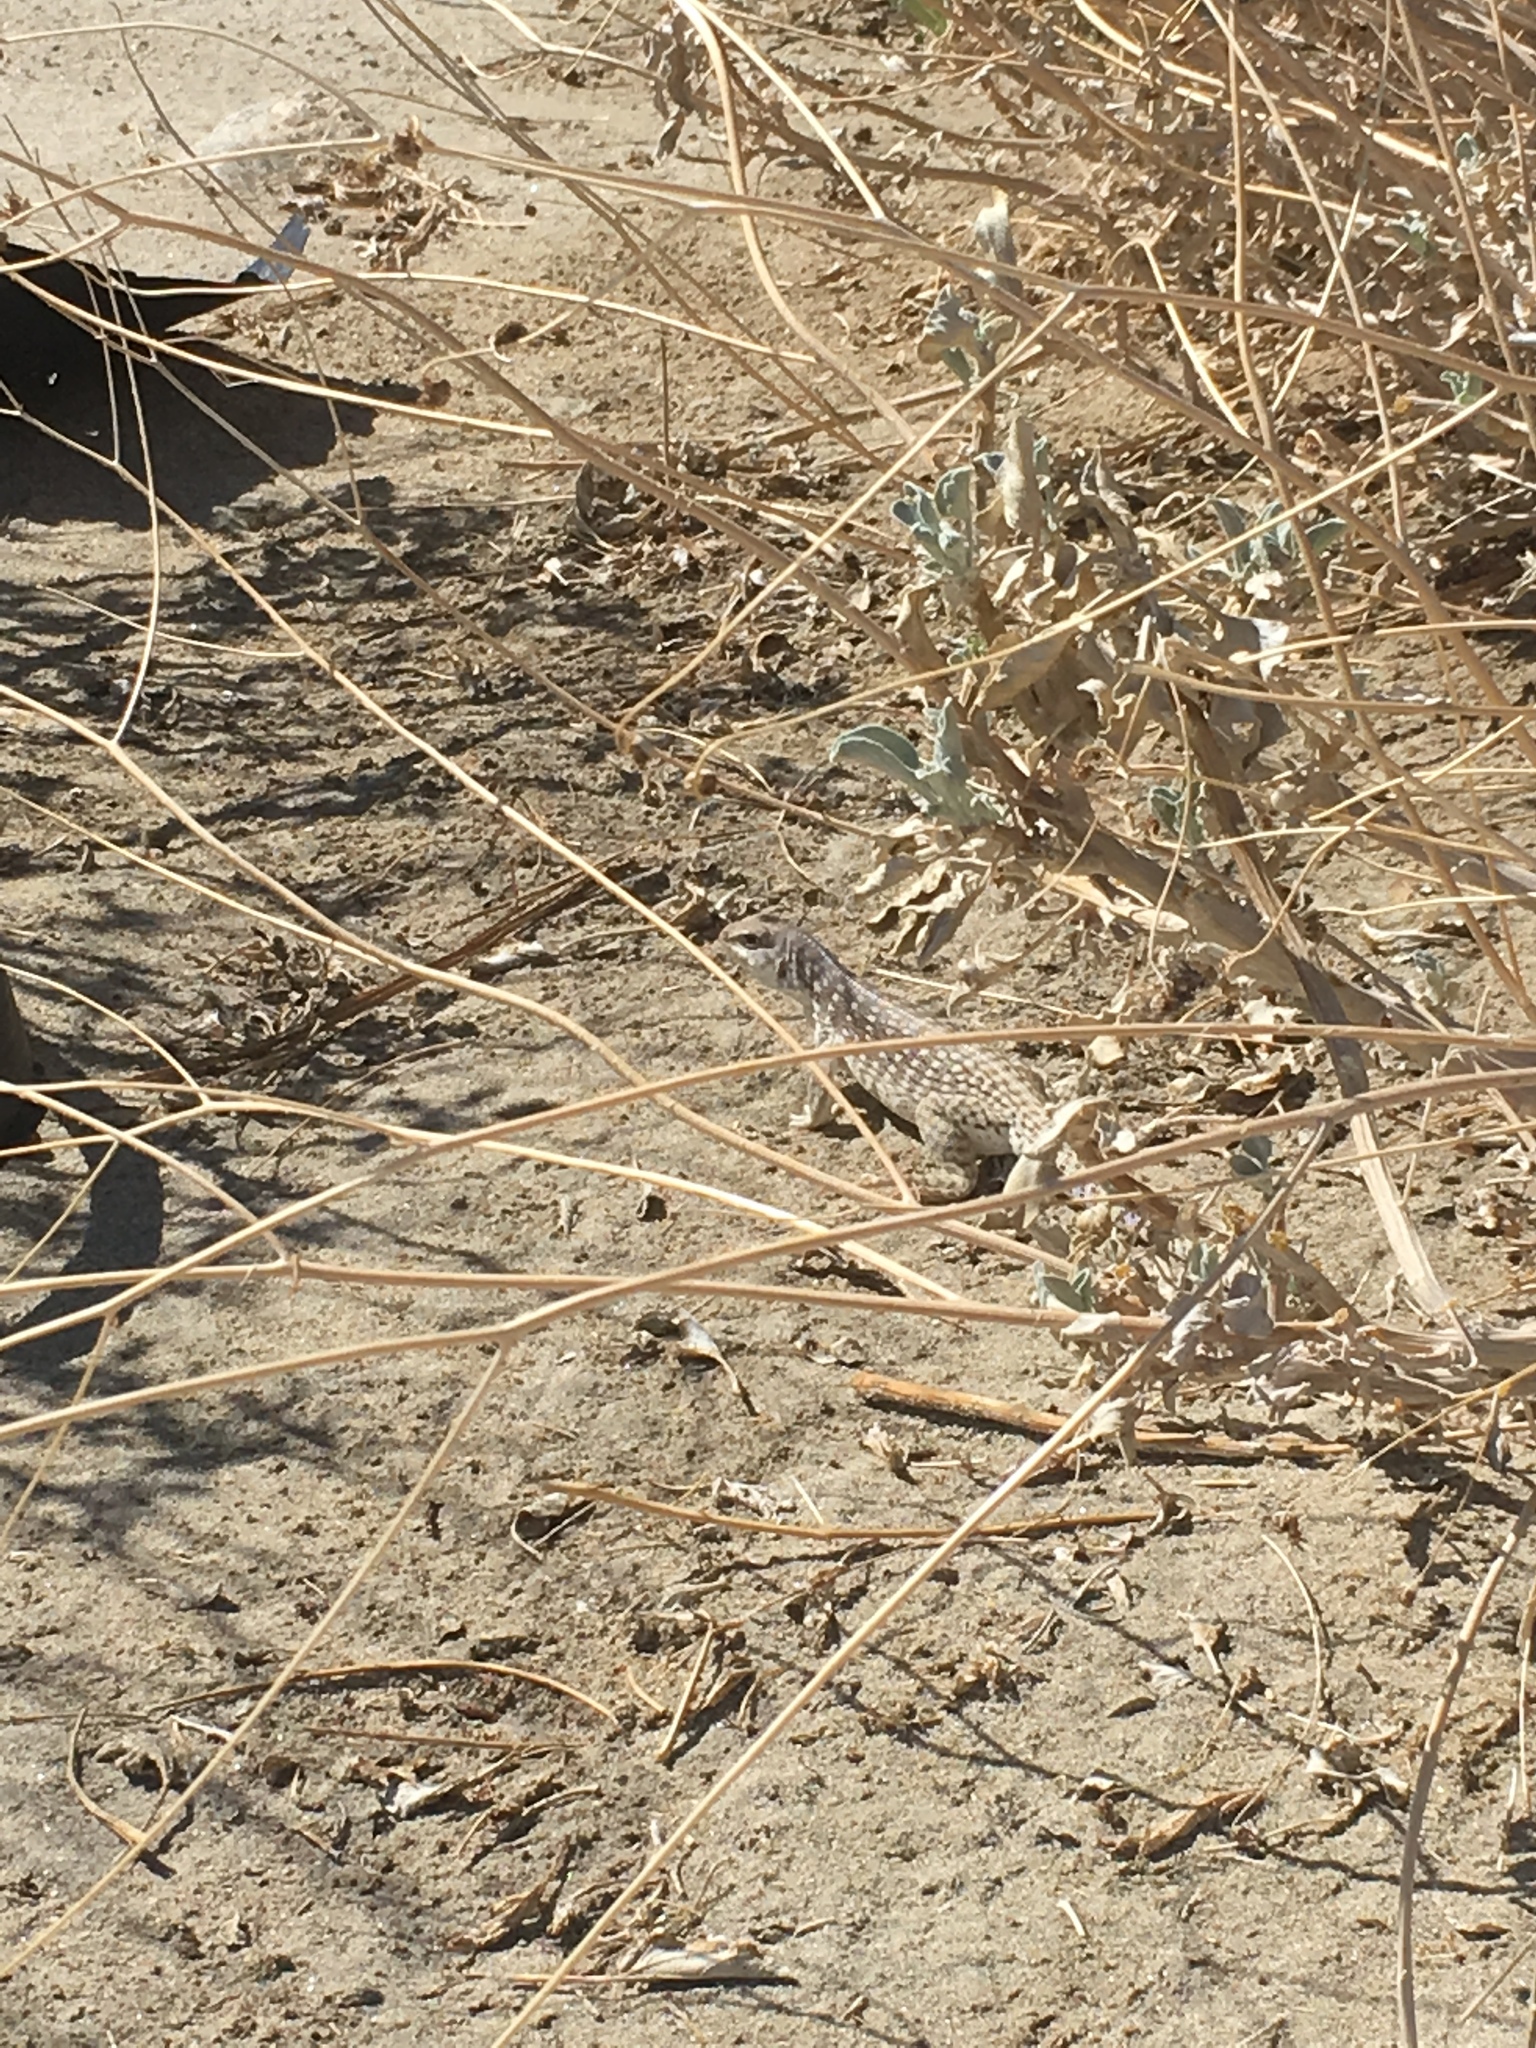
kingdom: Animalia
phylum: Chordata
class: Squamata
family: Iguanidae
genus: Dipsosaurus
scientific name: Dipsosaurus dorsalis
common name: Desert iguana
